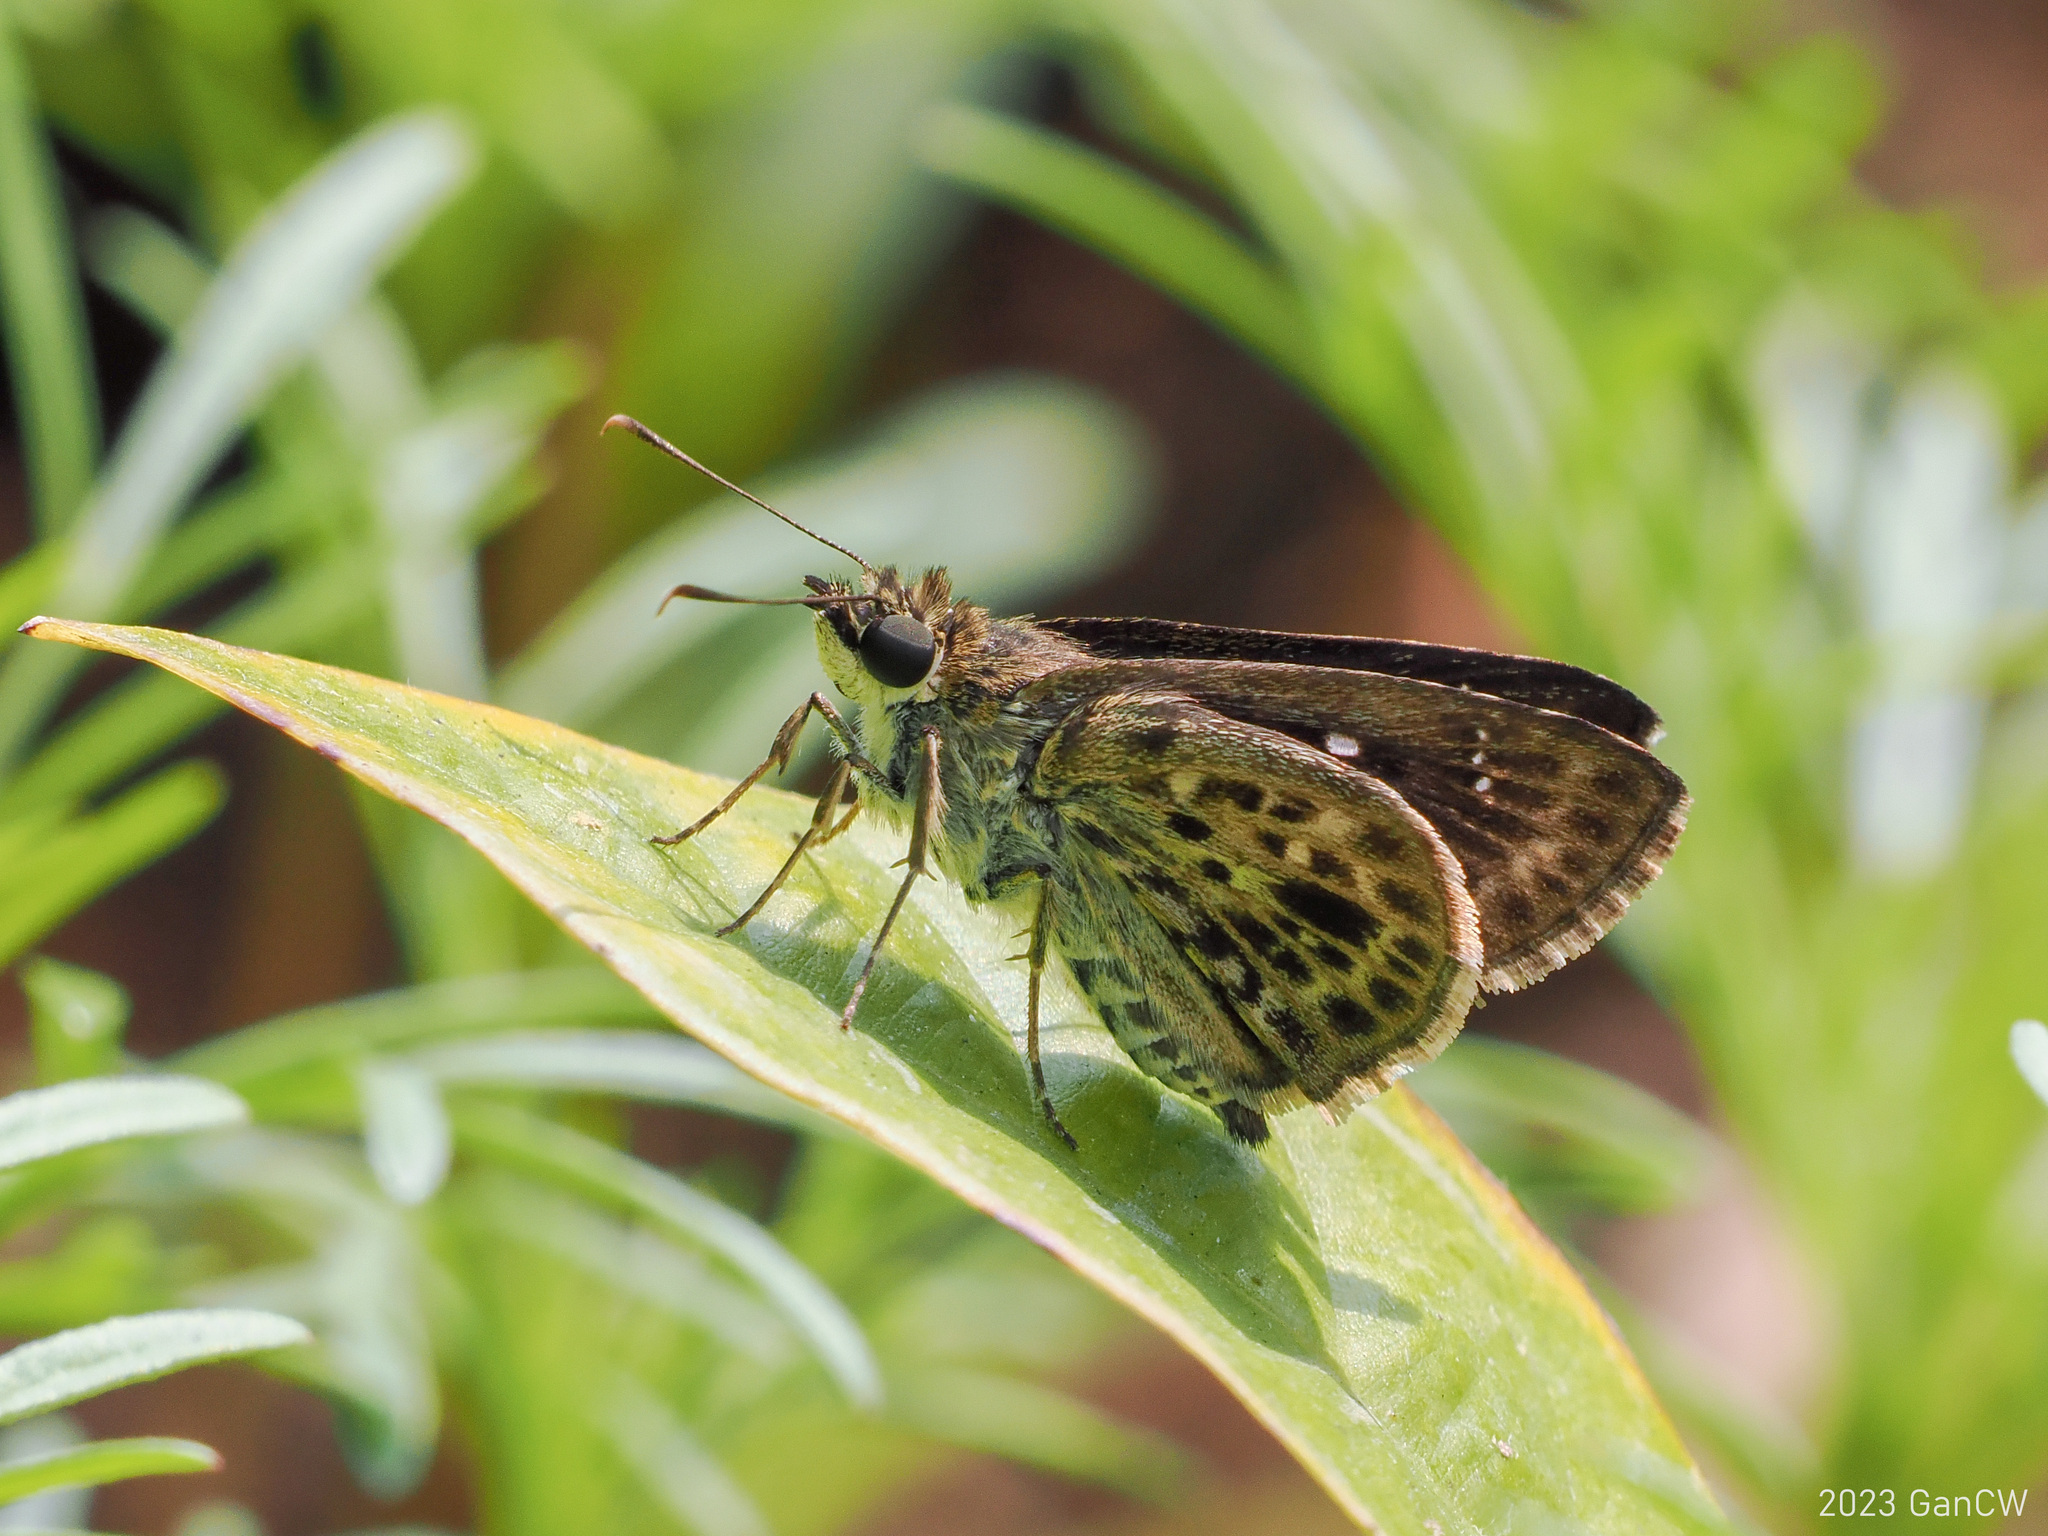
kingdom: Animalia
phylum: Arthropoda
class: Insecta
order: Lepidoptera
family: Hesperiidae
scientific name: Hesperiidae
